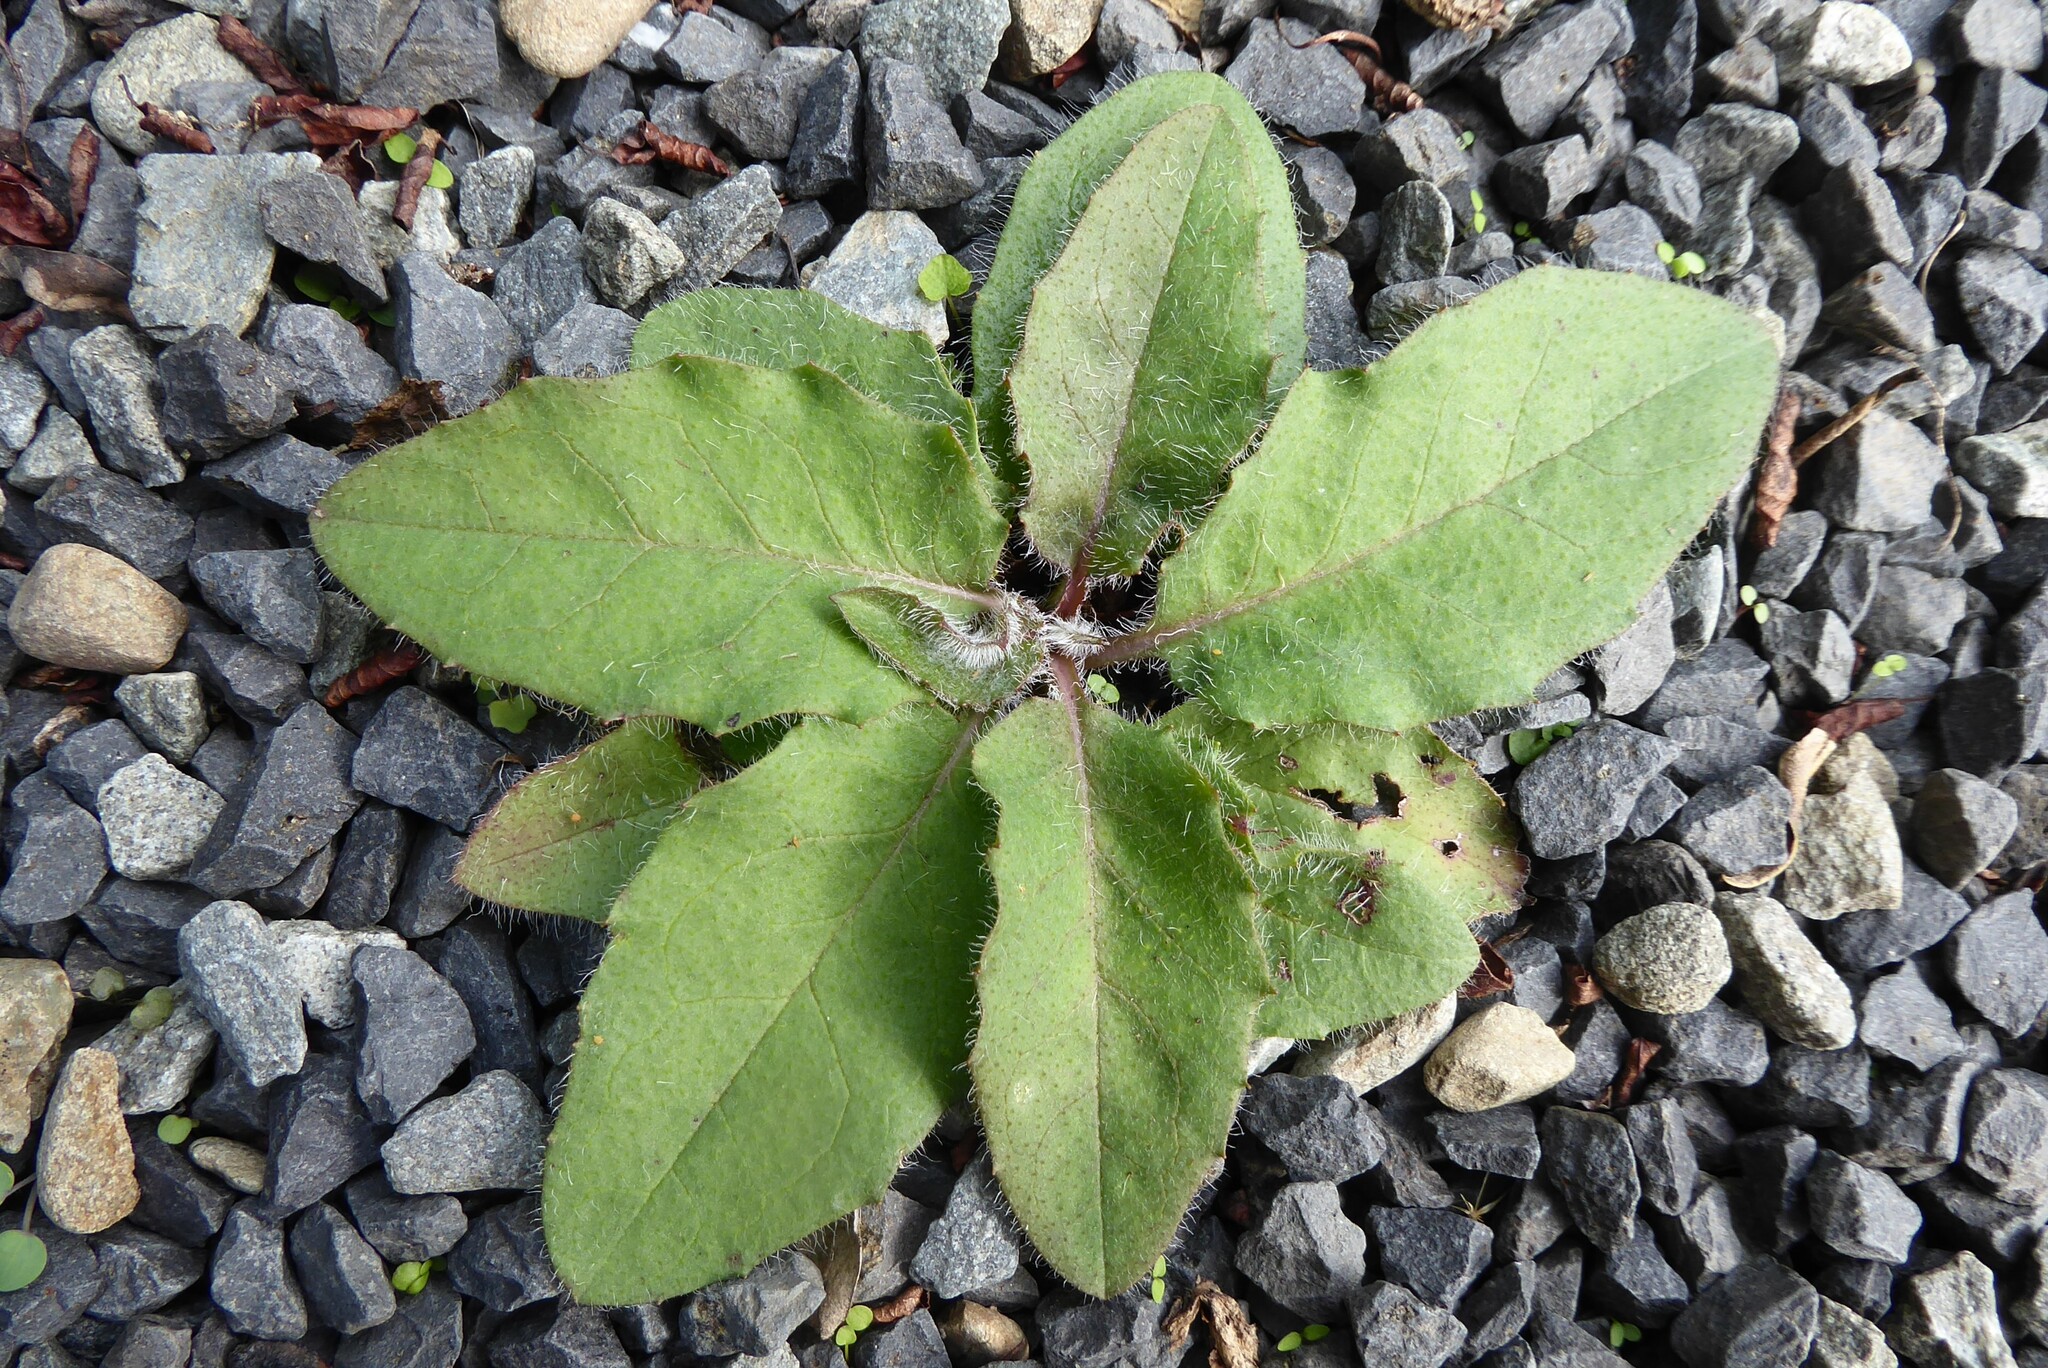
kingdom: Plantae
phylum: Tracheophyta
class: Magnoliopsida
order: Asterales
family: Asteraceae
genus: Hieracium
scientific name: Hieracium lepidulum
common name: Irregular-toothed hawkweed
